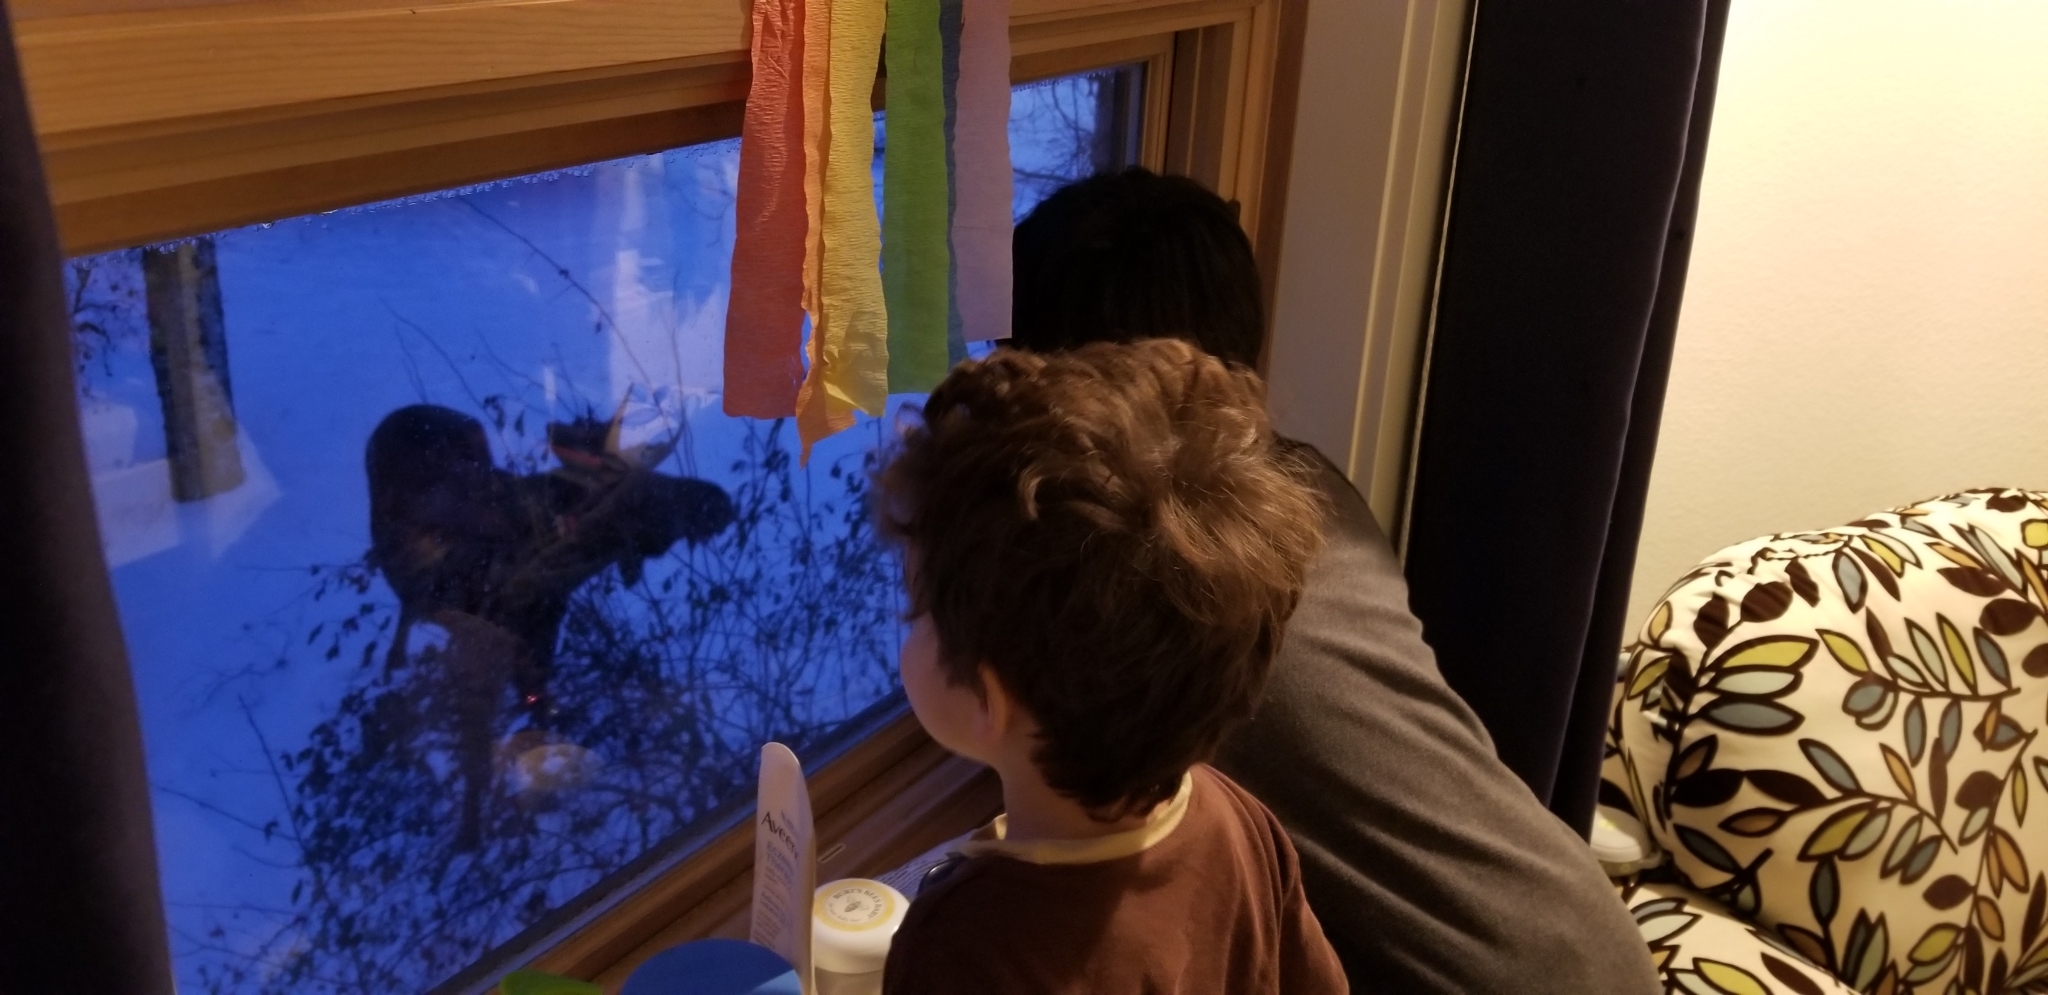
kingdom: Animalia
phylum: Chordata
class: Mammalia
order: Artiodactyla
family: Cervidae
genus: Alces
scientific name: Alces alces
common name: Moose
